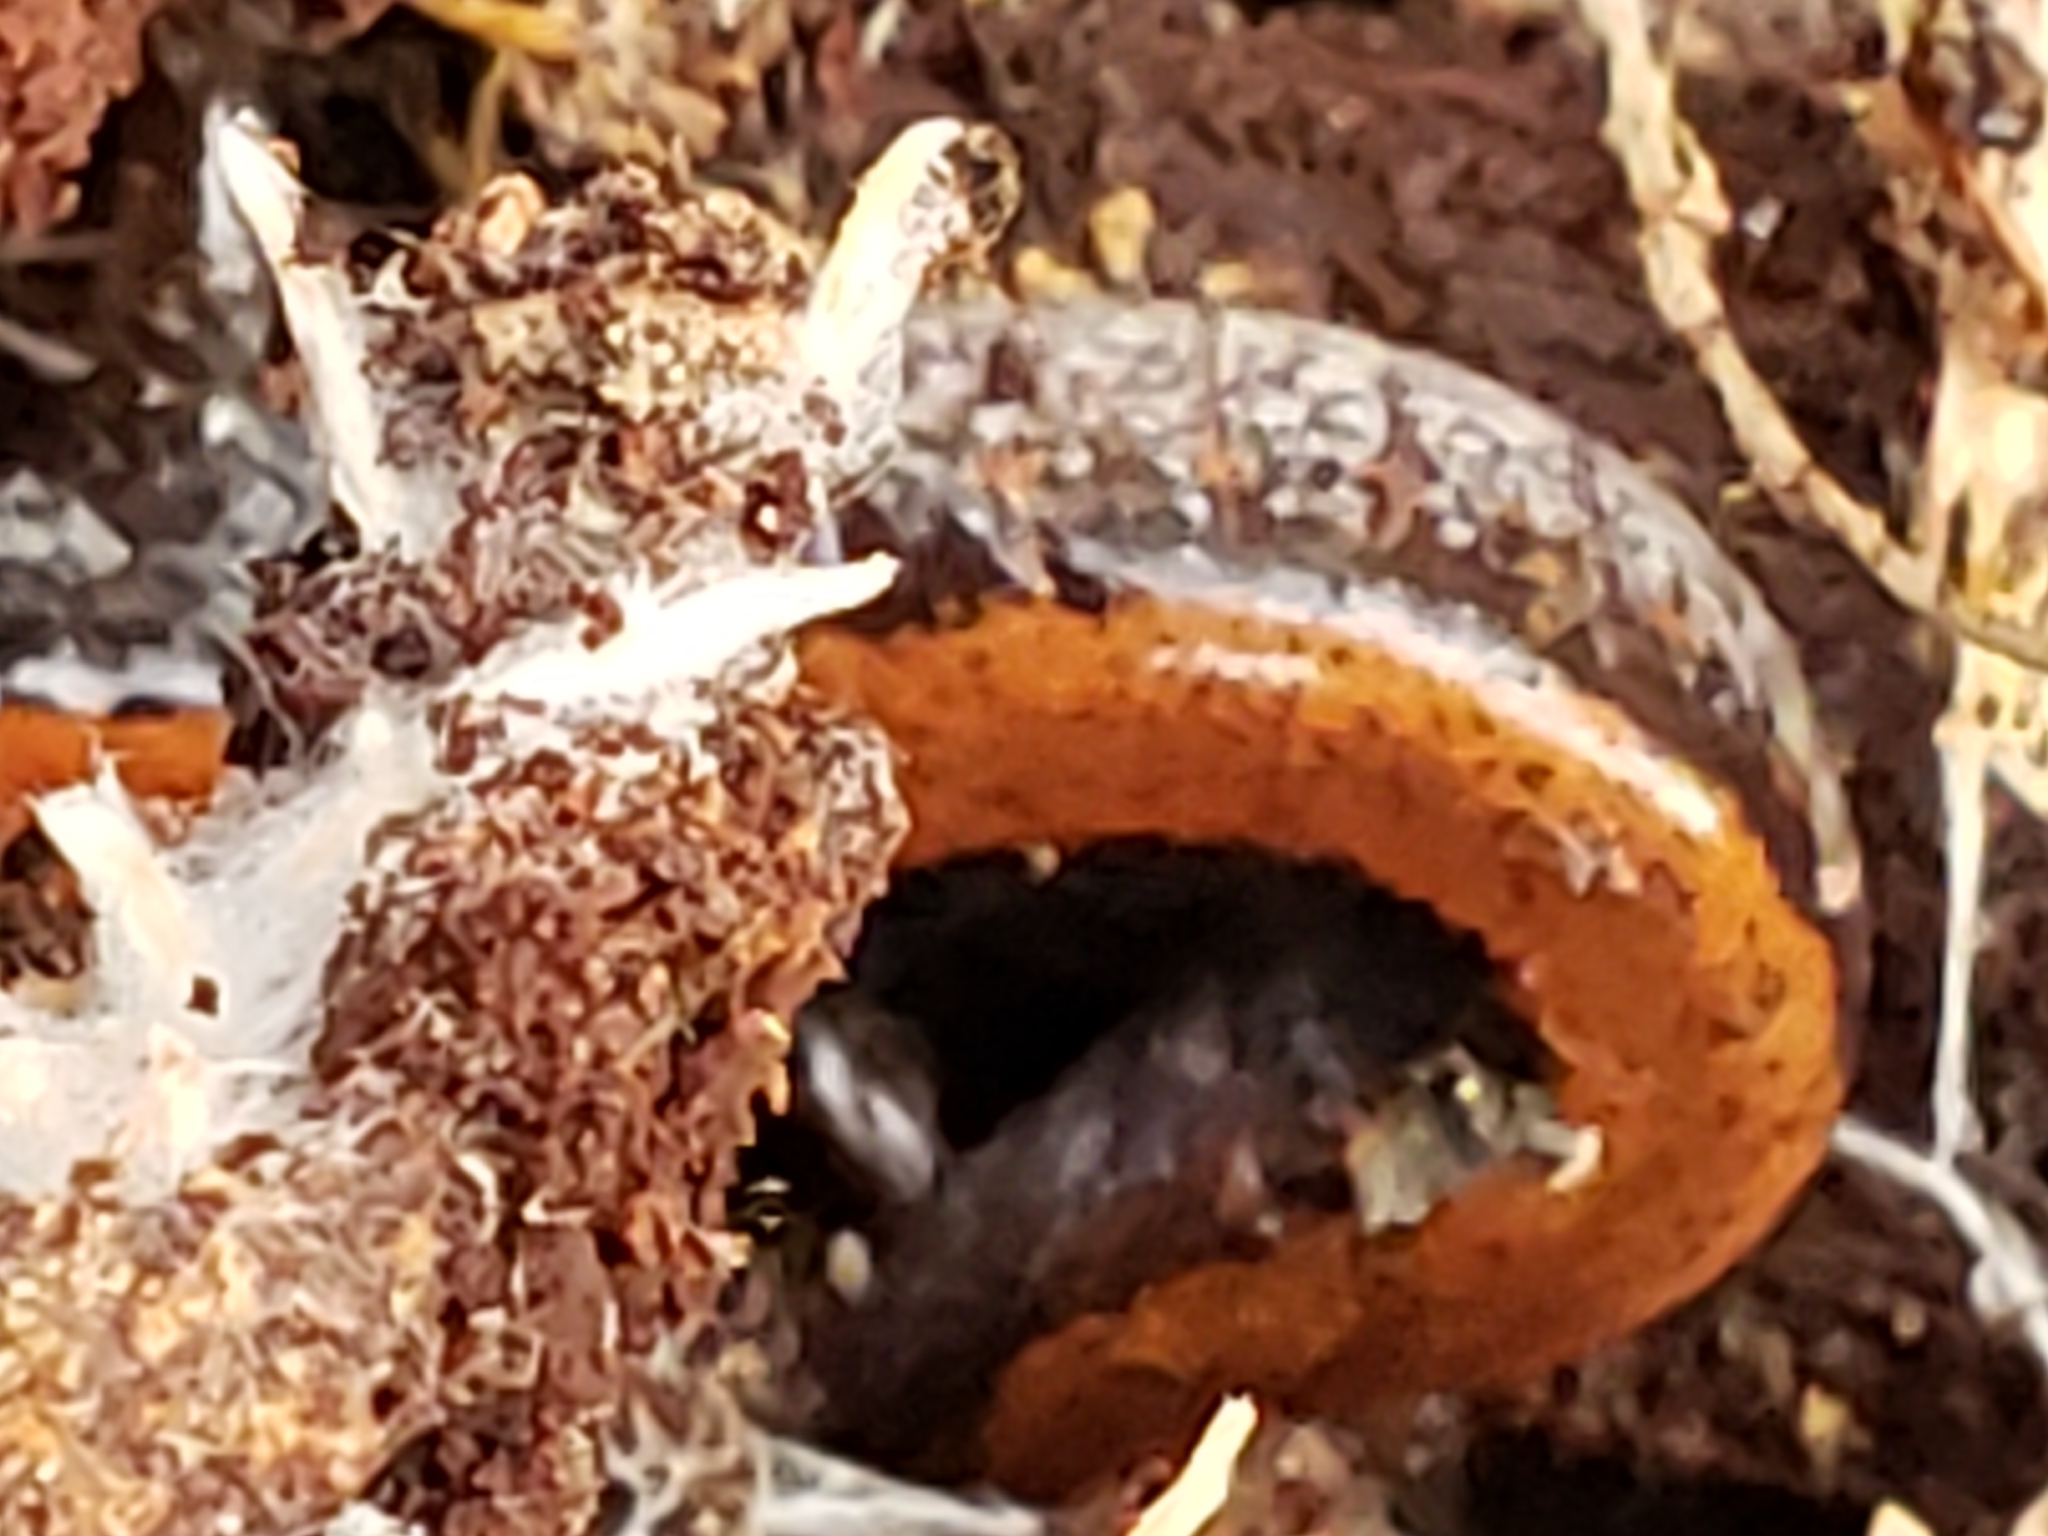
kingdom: Animalia
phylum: Chordata
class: Amphibia
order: Caudata
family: Plethodontidae
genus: Plethodon
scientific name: Plethodon cinereus
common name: Redback salamander
